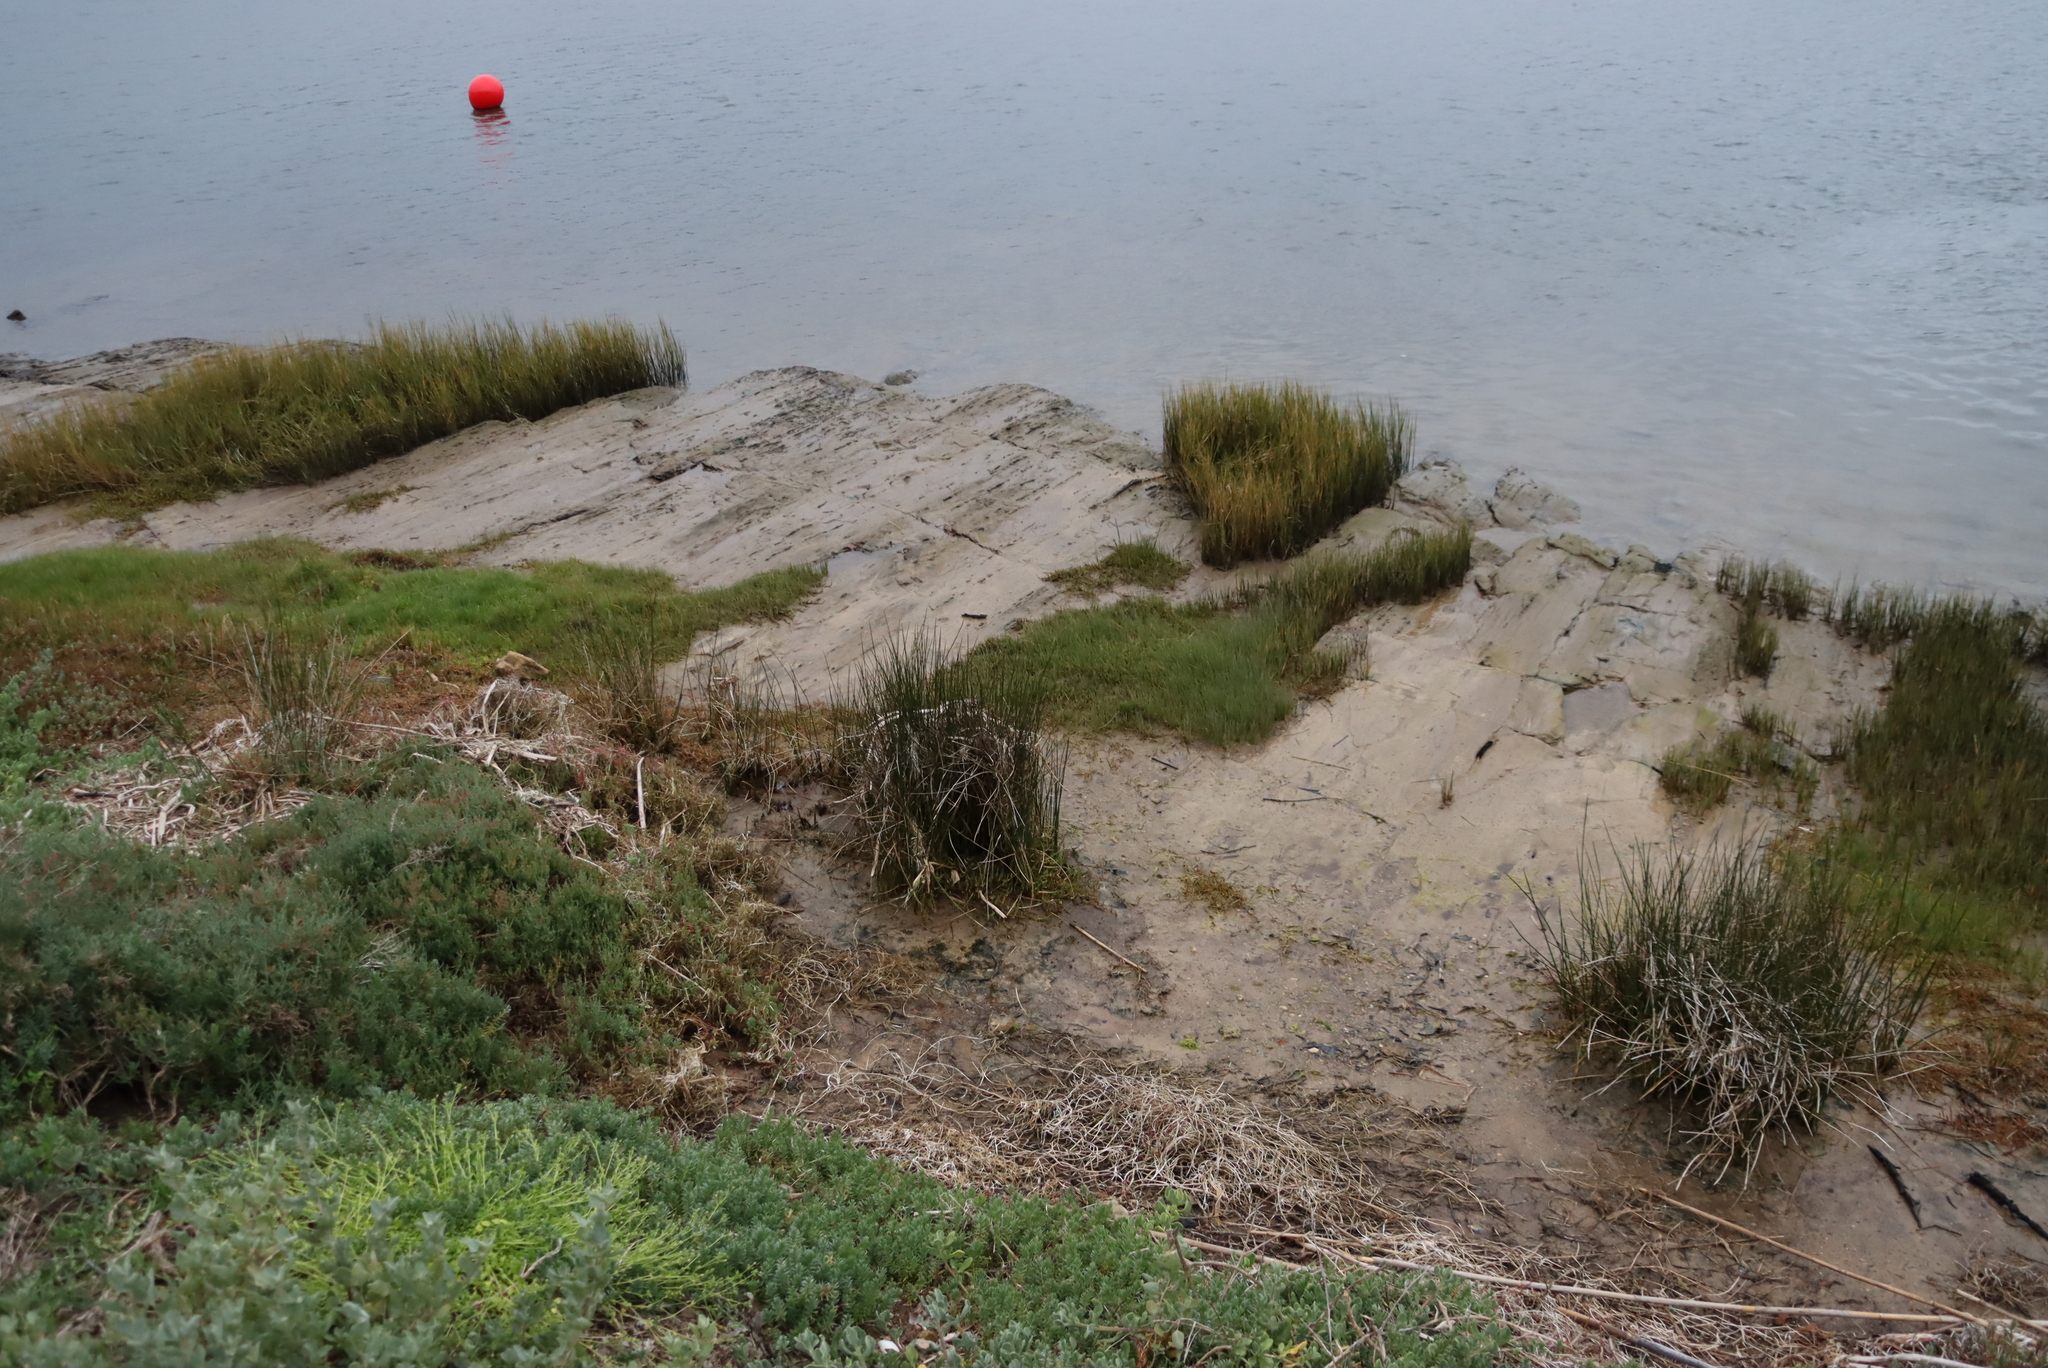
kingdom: Plantae
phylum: Tracheophyta
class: Magnoliopsida
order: Caryophyllales
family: Amaranthaceae
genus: Chenolea
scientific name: Chenolea diffusa
